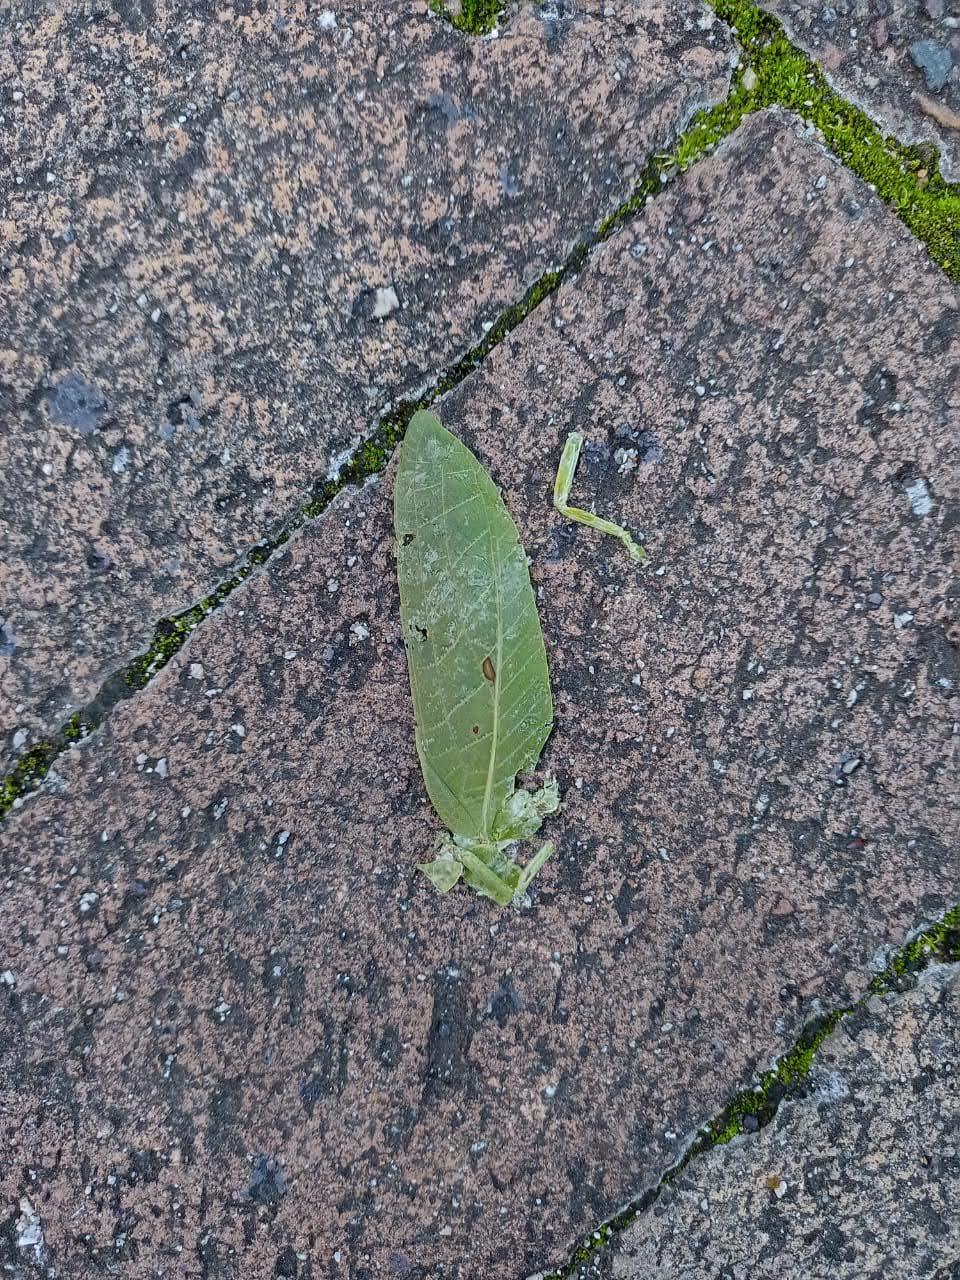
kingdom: Animalia
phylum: Arthropoda
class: Insecta
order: Orthoptera
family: Tettigoniidae
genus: Zabalius
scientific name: Zabalius ophthalmicus
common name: Blue-legged sylvan katydid
